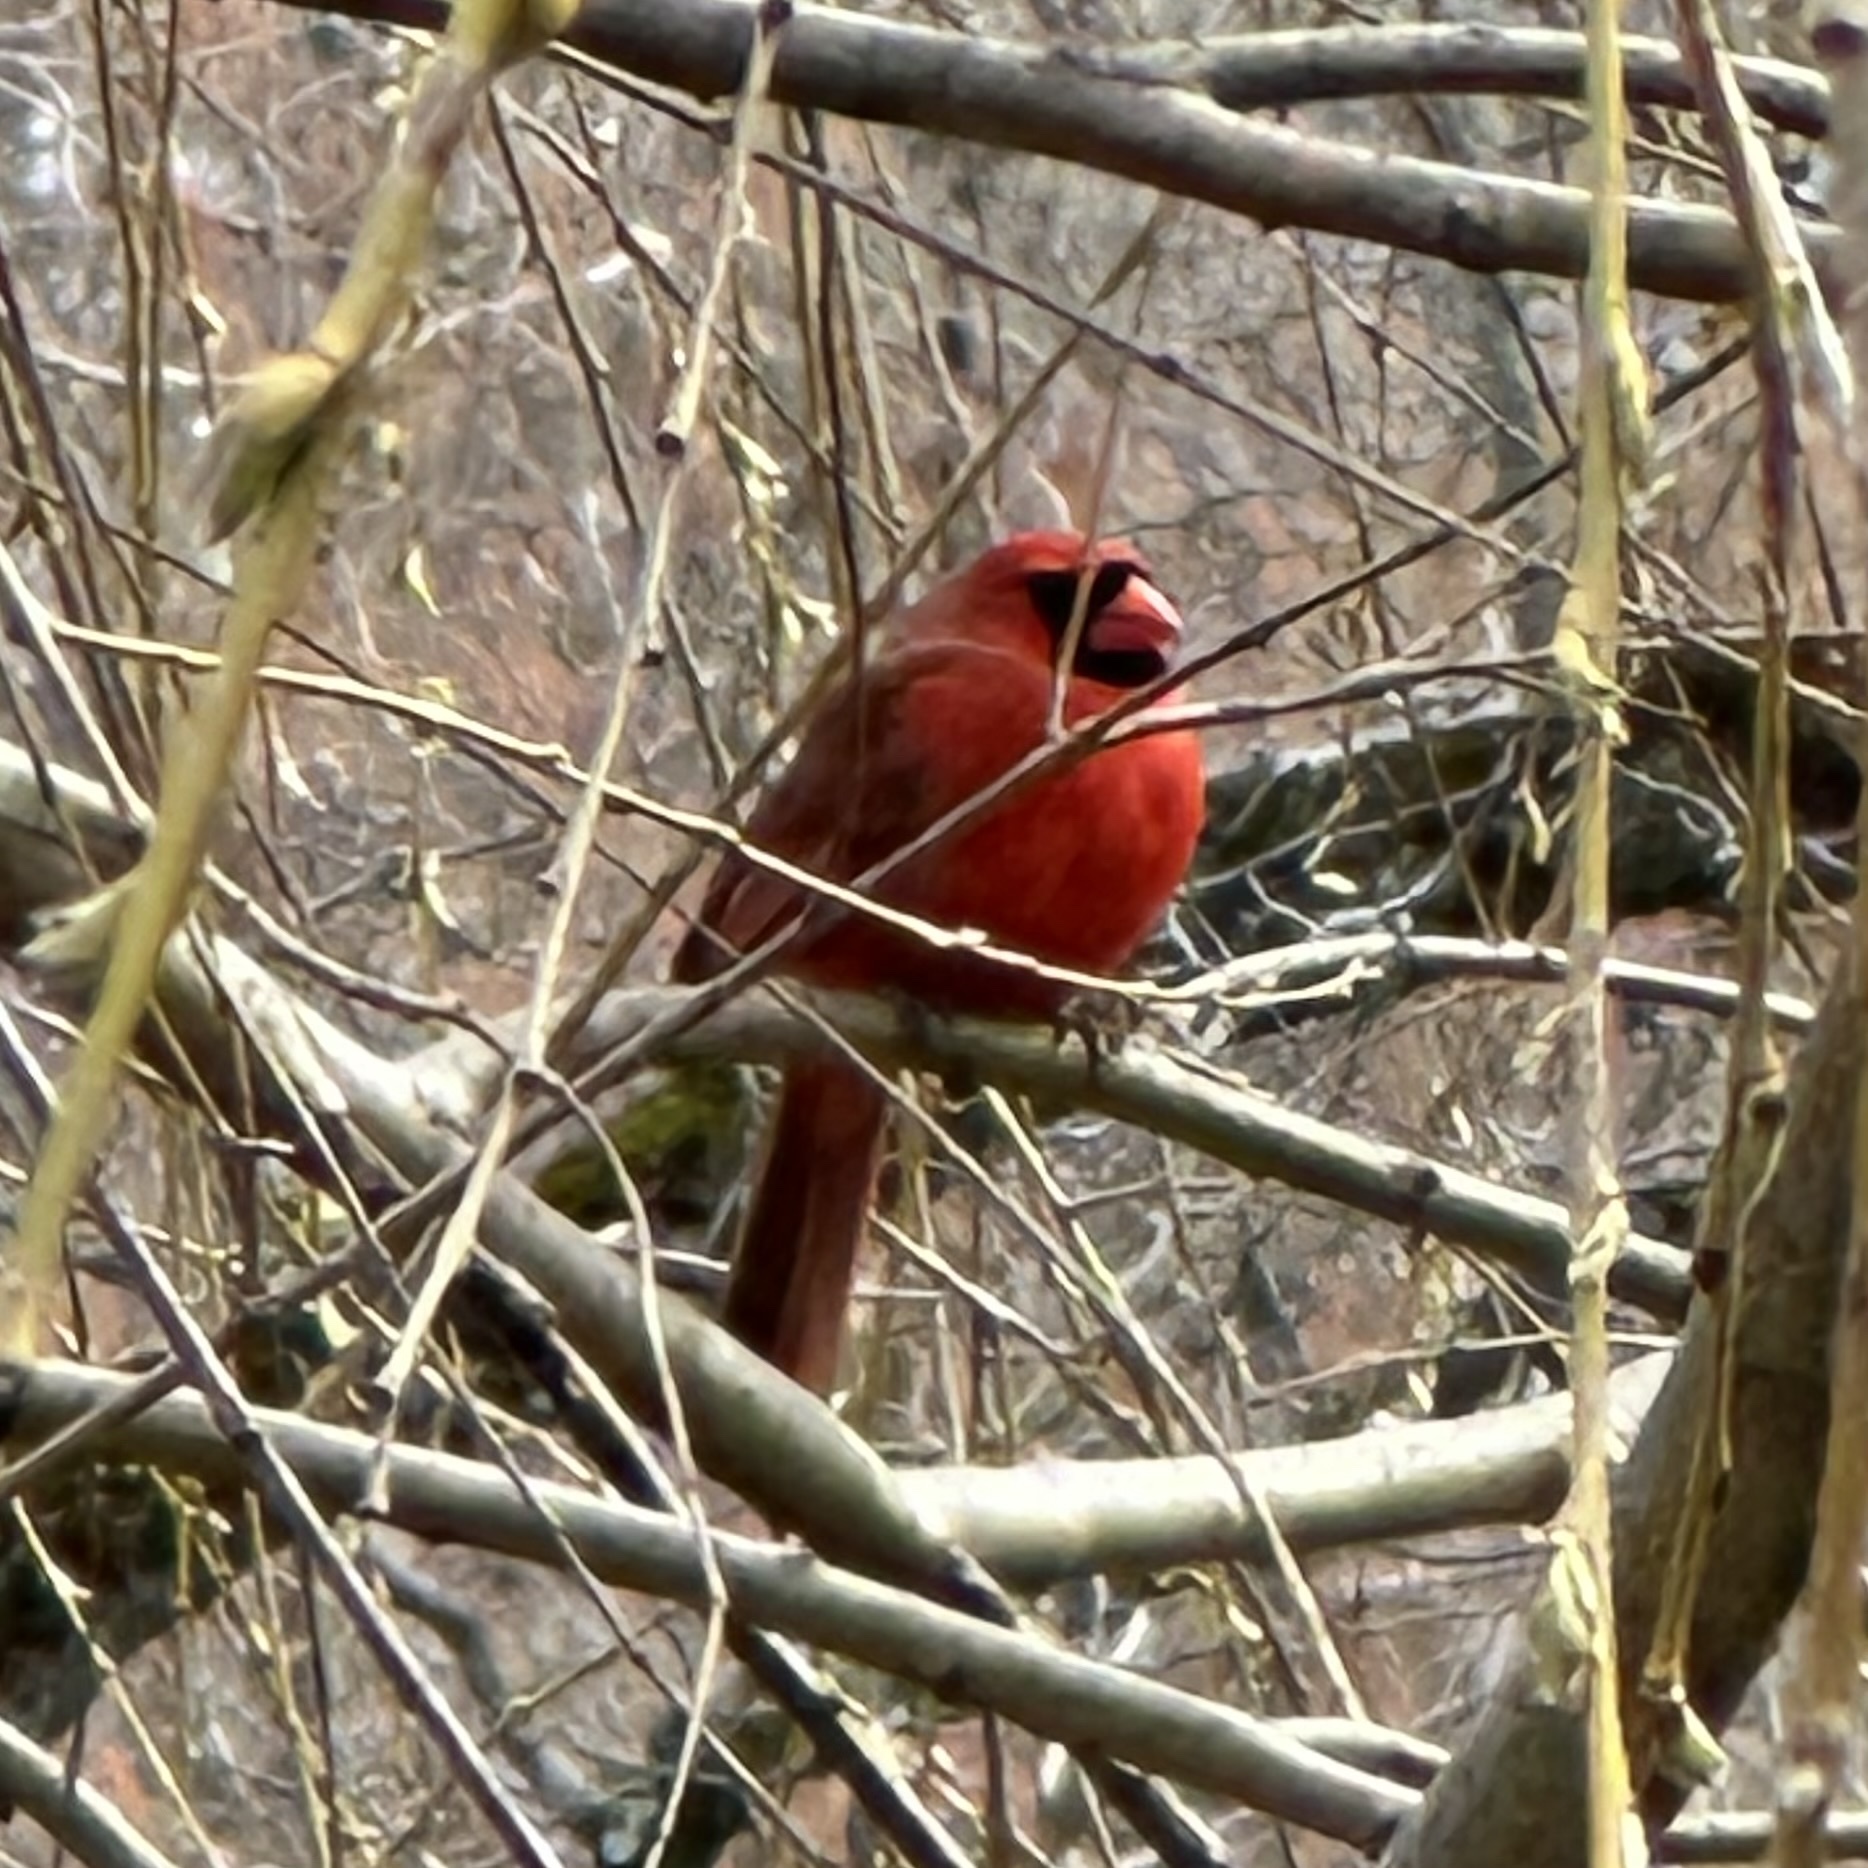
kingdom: Animalia
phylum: Chordata
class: Aves
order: Passeriformes
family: Cardinalidae
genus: Cardinalis
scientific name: Cardinalis cardinalis
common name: Northern cardinal
